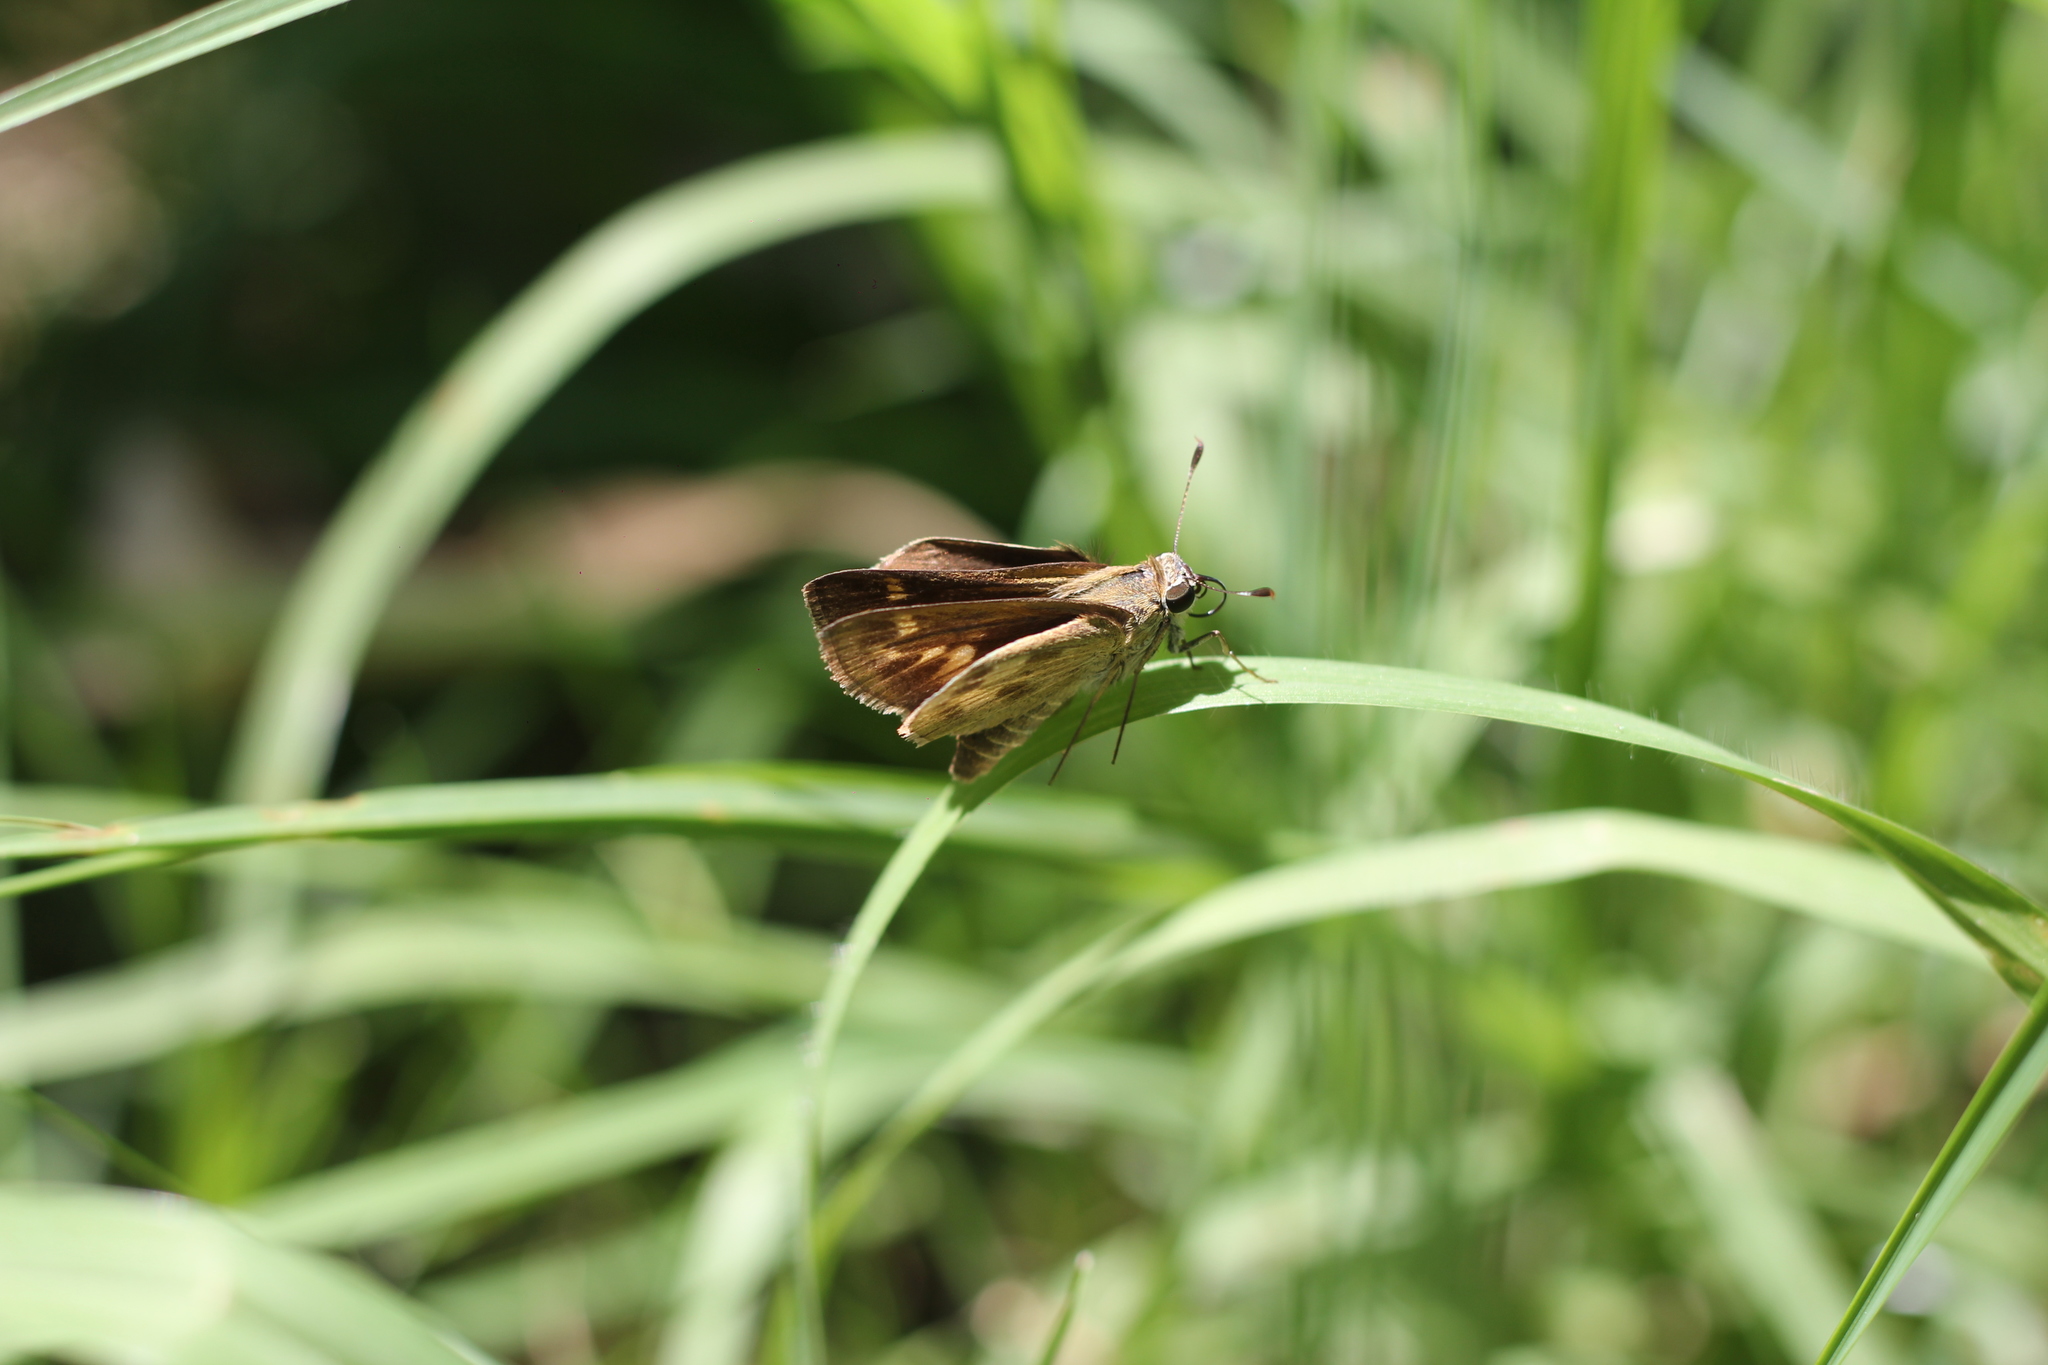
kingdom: Animalia
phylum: Arthropoda
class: Insecta
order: Lepidoptera
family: Hesperiidae
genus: Polites
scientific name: Polites vibex
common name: Whirlabout
